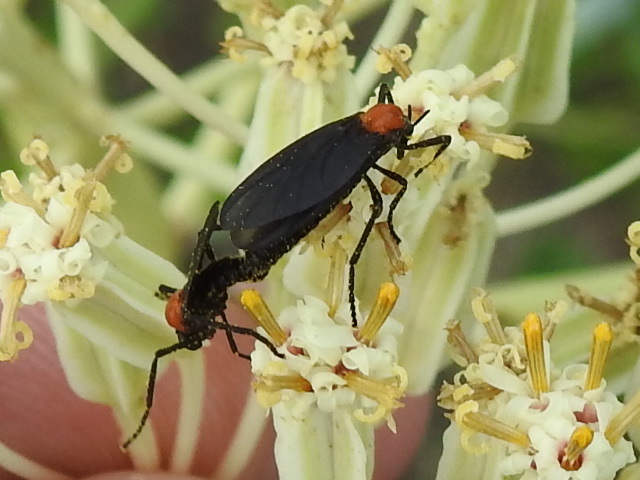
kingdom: Animalia
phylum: Arthropoda
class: Insecta
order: Diptera
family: Bibionidae
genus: Plecia
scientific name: Plecia nearctica
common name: March fly
